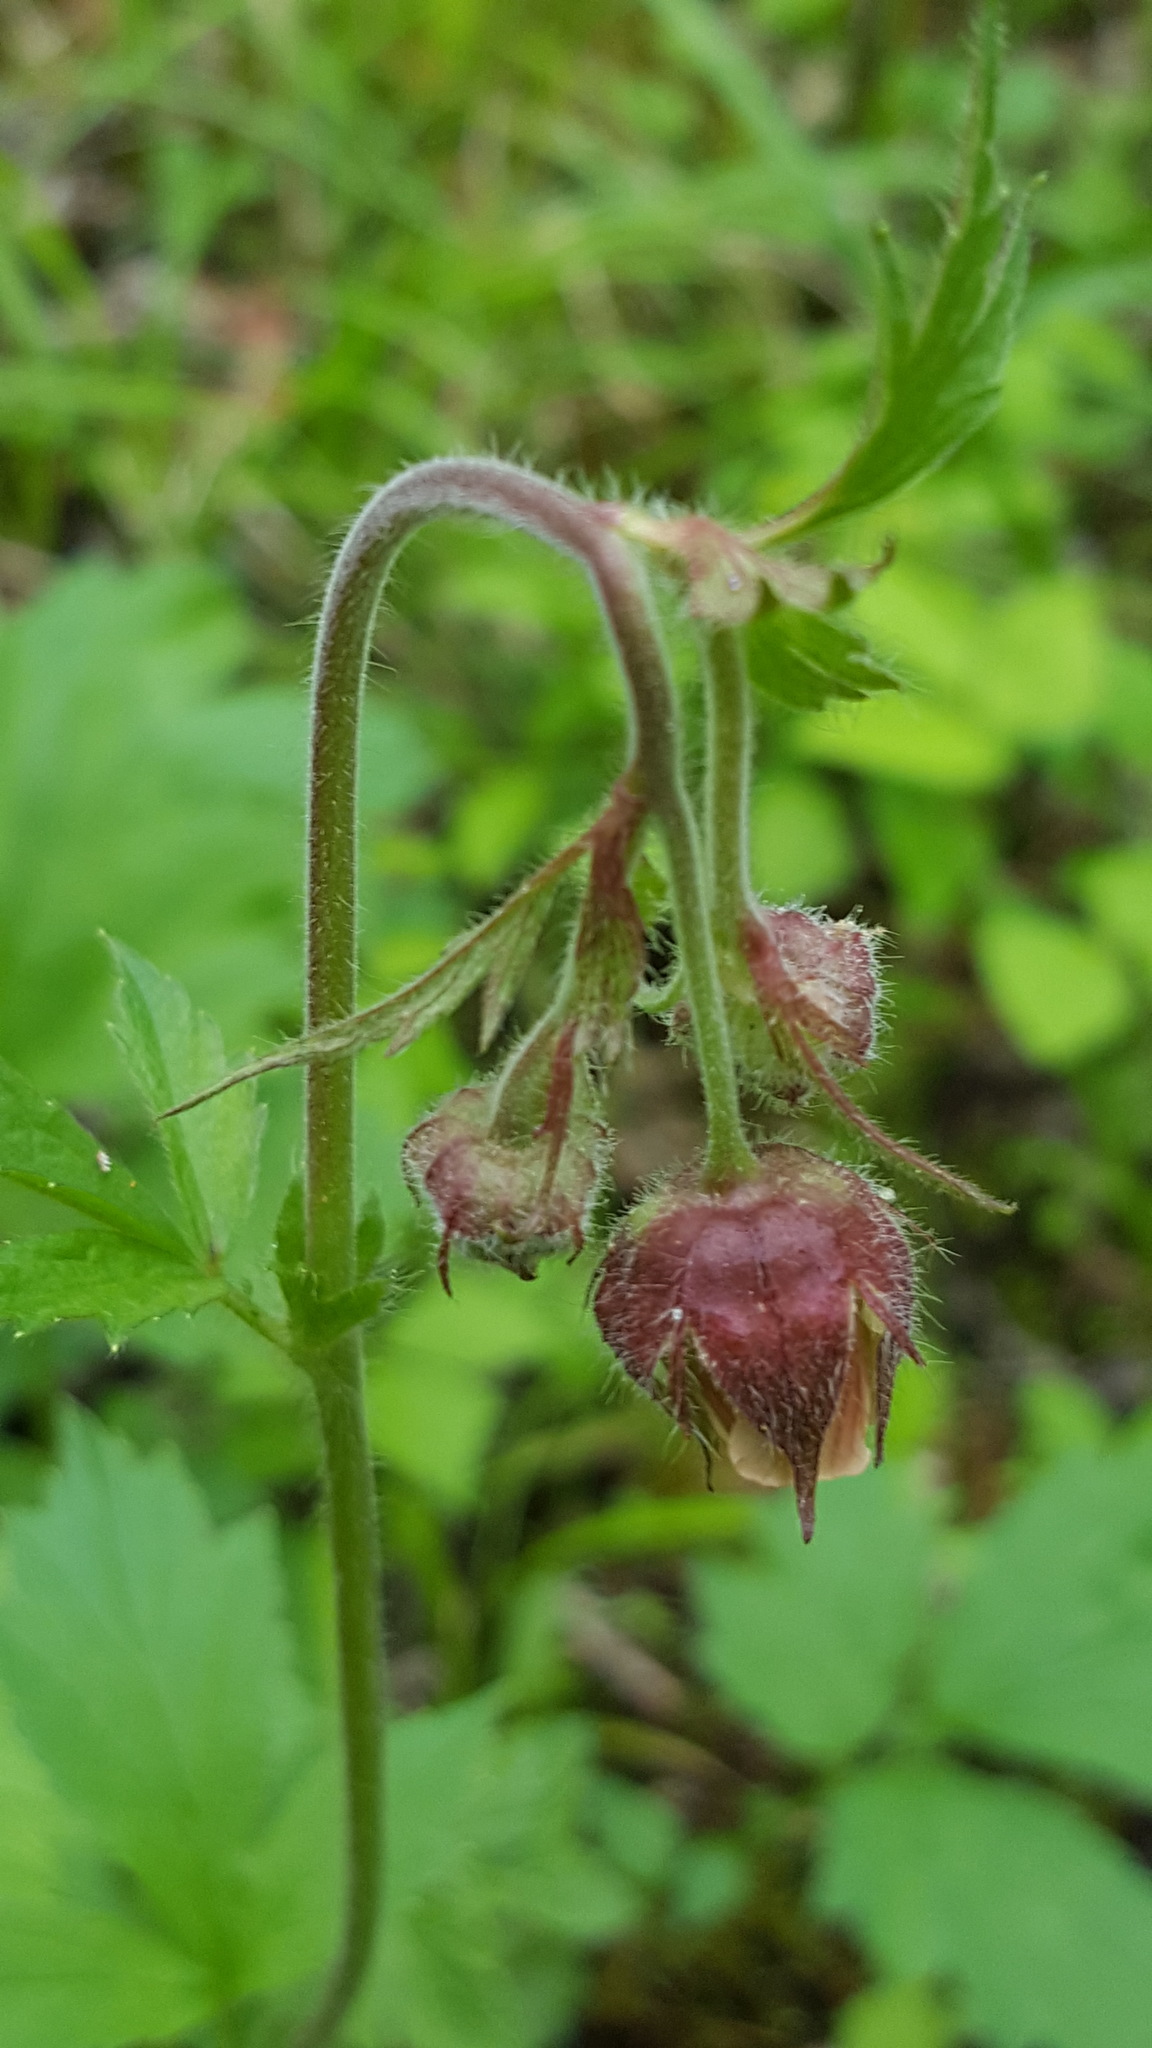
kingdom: Plantae
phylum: Tracheophyta
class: Magnoliopsida
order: Rosales
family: Rosaceae
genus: Geum
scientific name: Geum rivale
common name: Water avens
